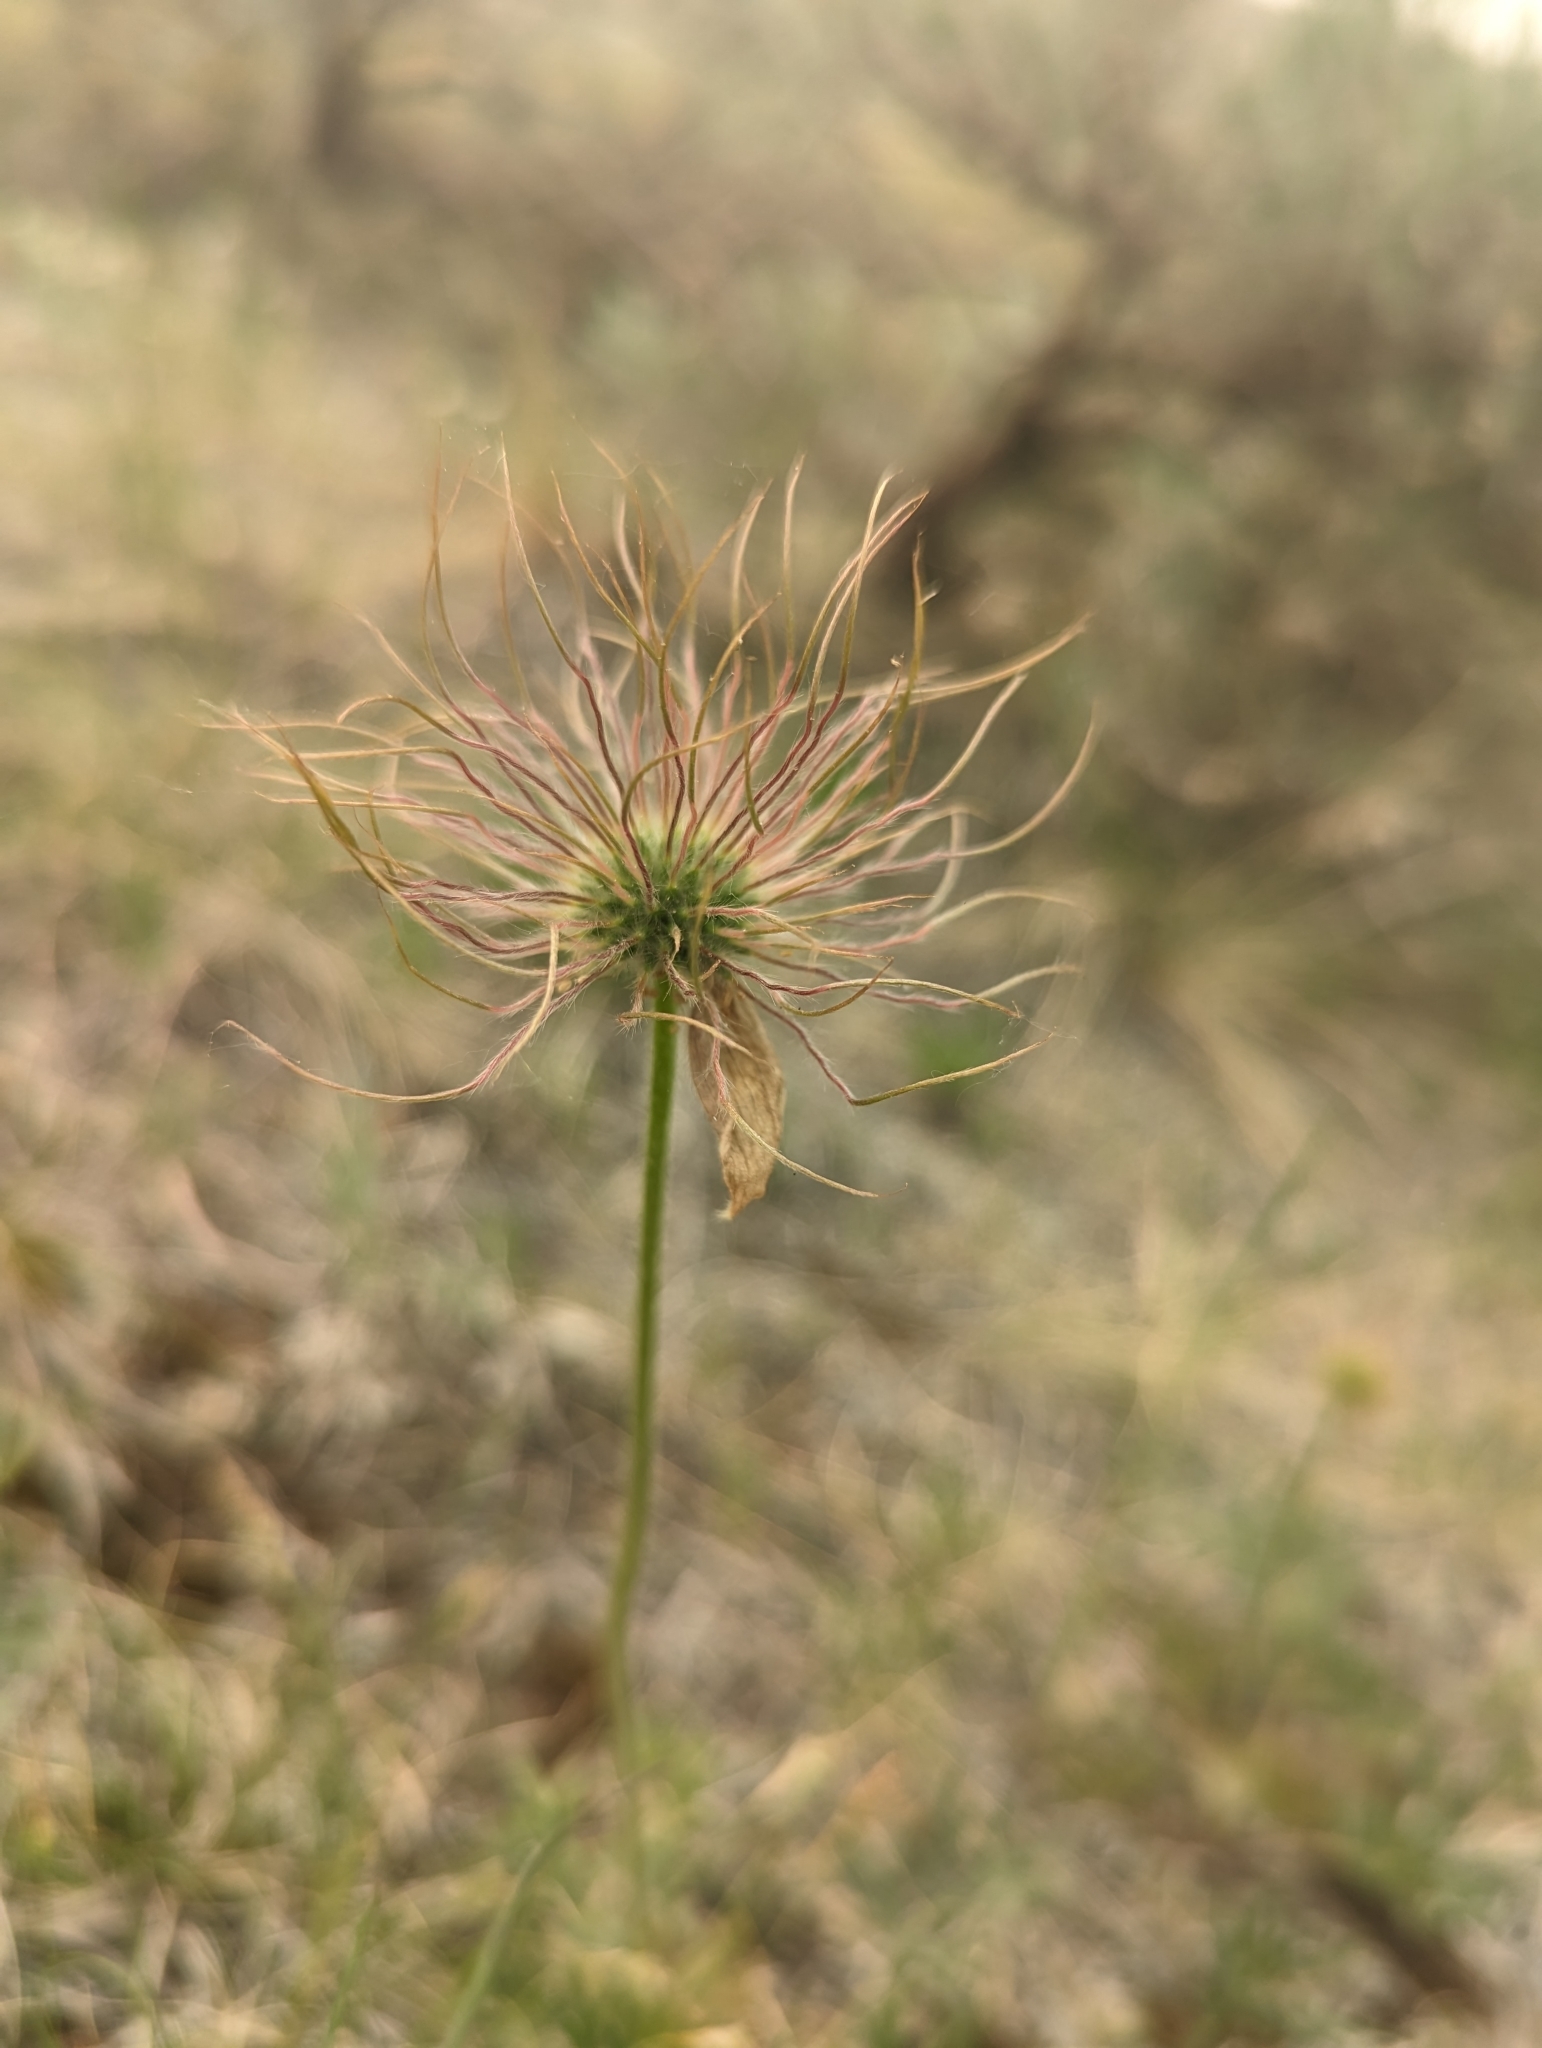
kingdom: Plantae
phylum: Tracheophyta
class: Magnoliopsida
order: Ranunculales
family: Ranunculaceae
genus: Pulsatilla
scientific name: Pulsatilla nuttalliana
